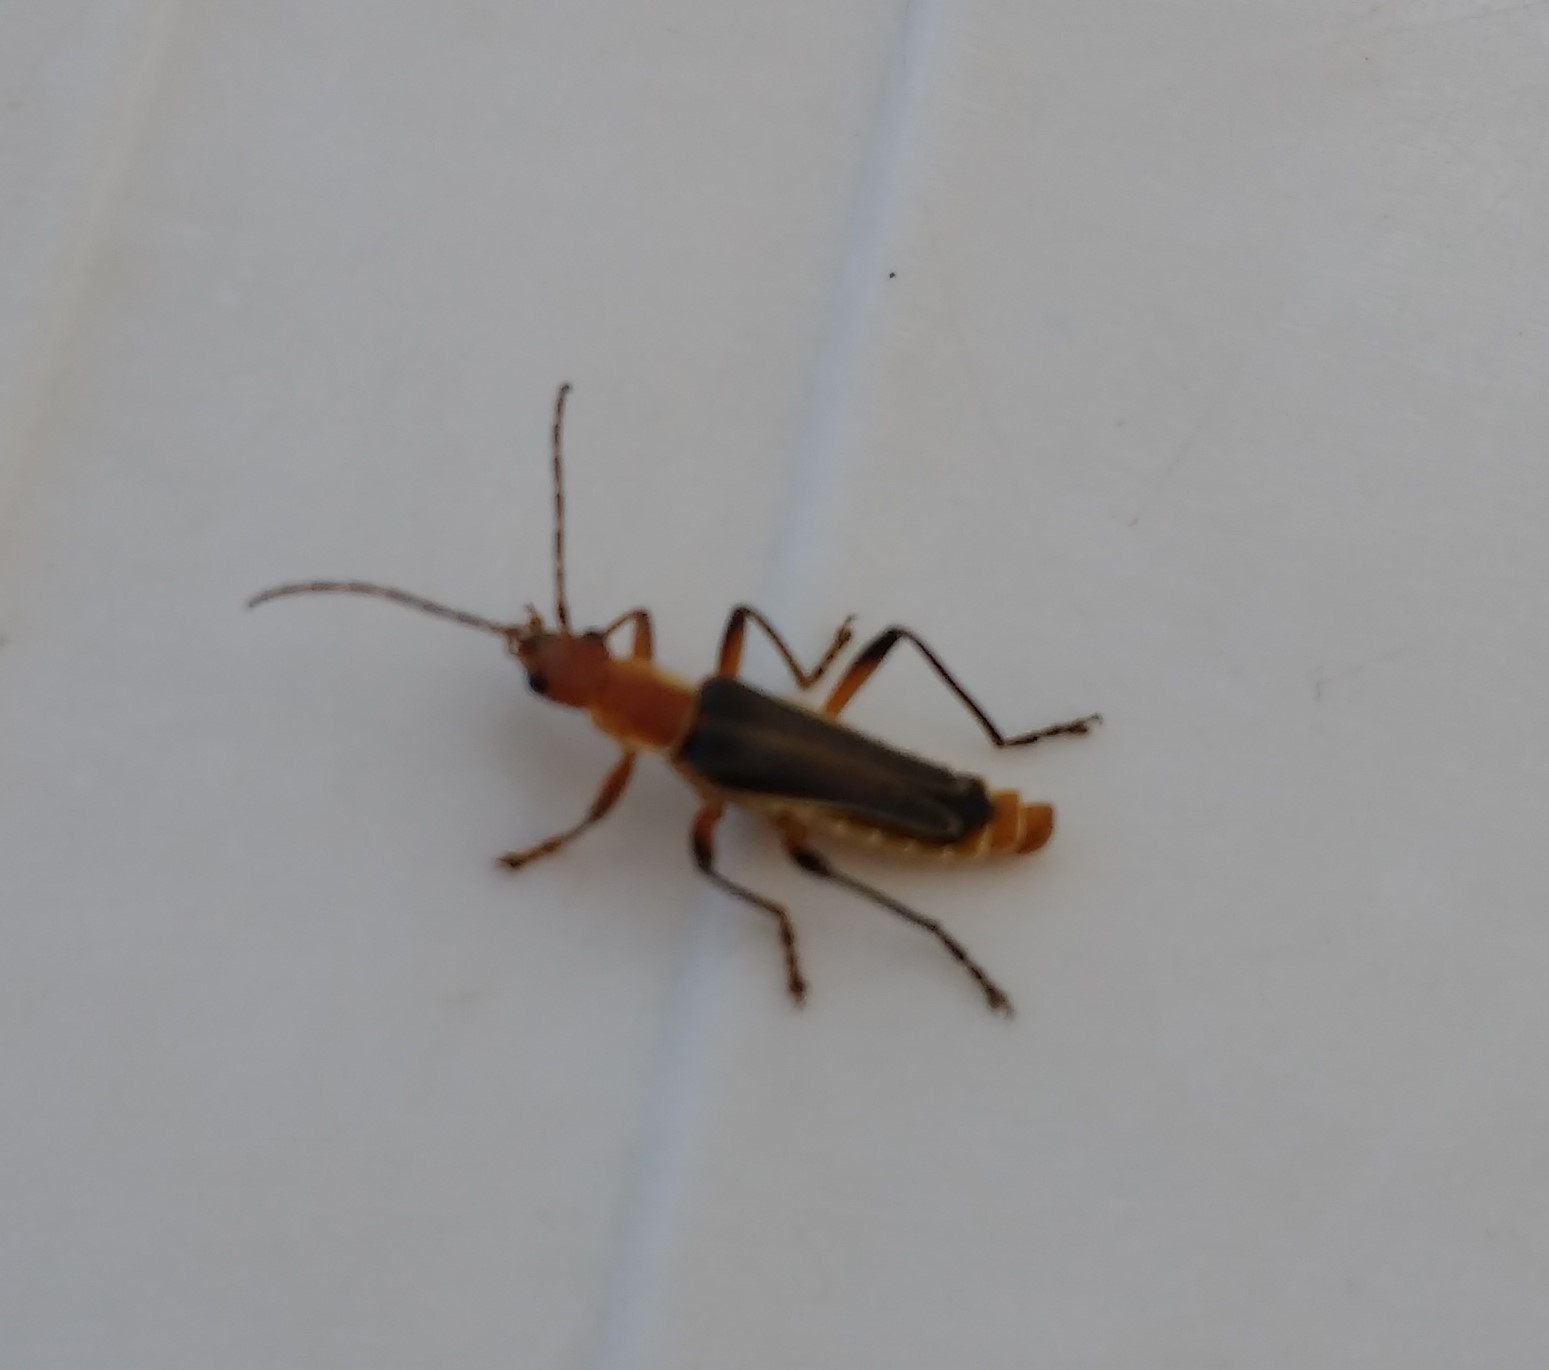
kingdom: Animalia
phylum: Arthropoda
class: Insecta
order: Coleoptera
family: Cantharidae
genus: Chauliognathus
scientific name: Chauliognathus
